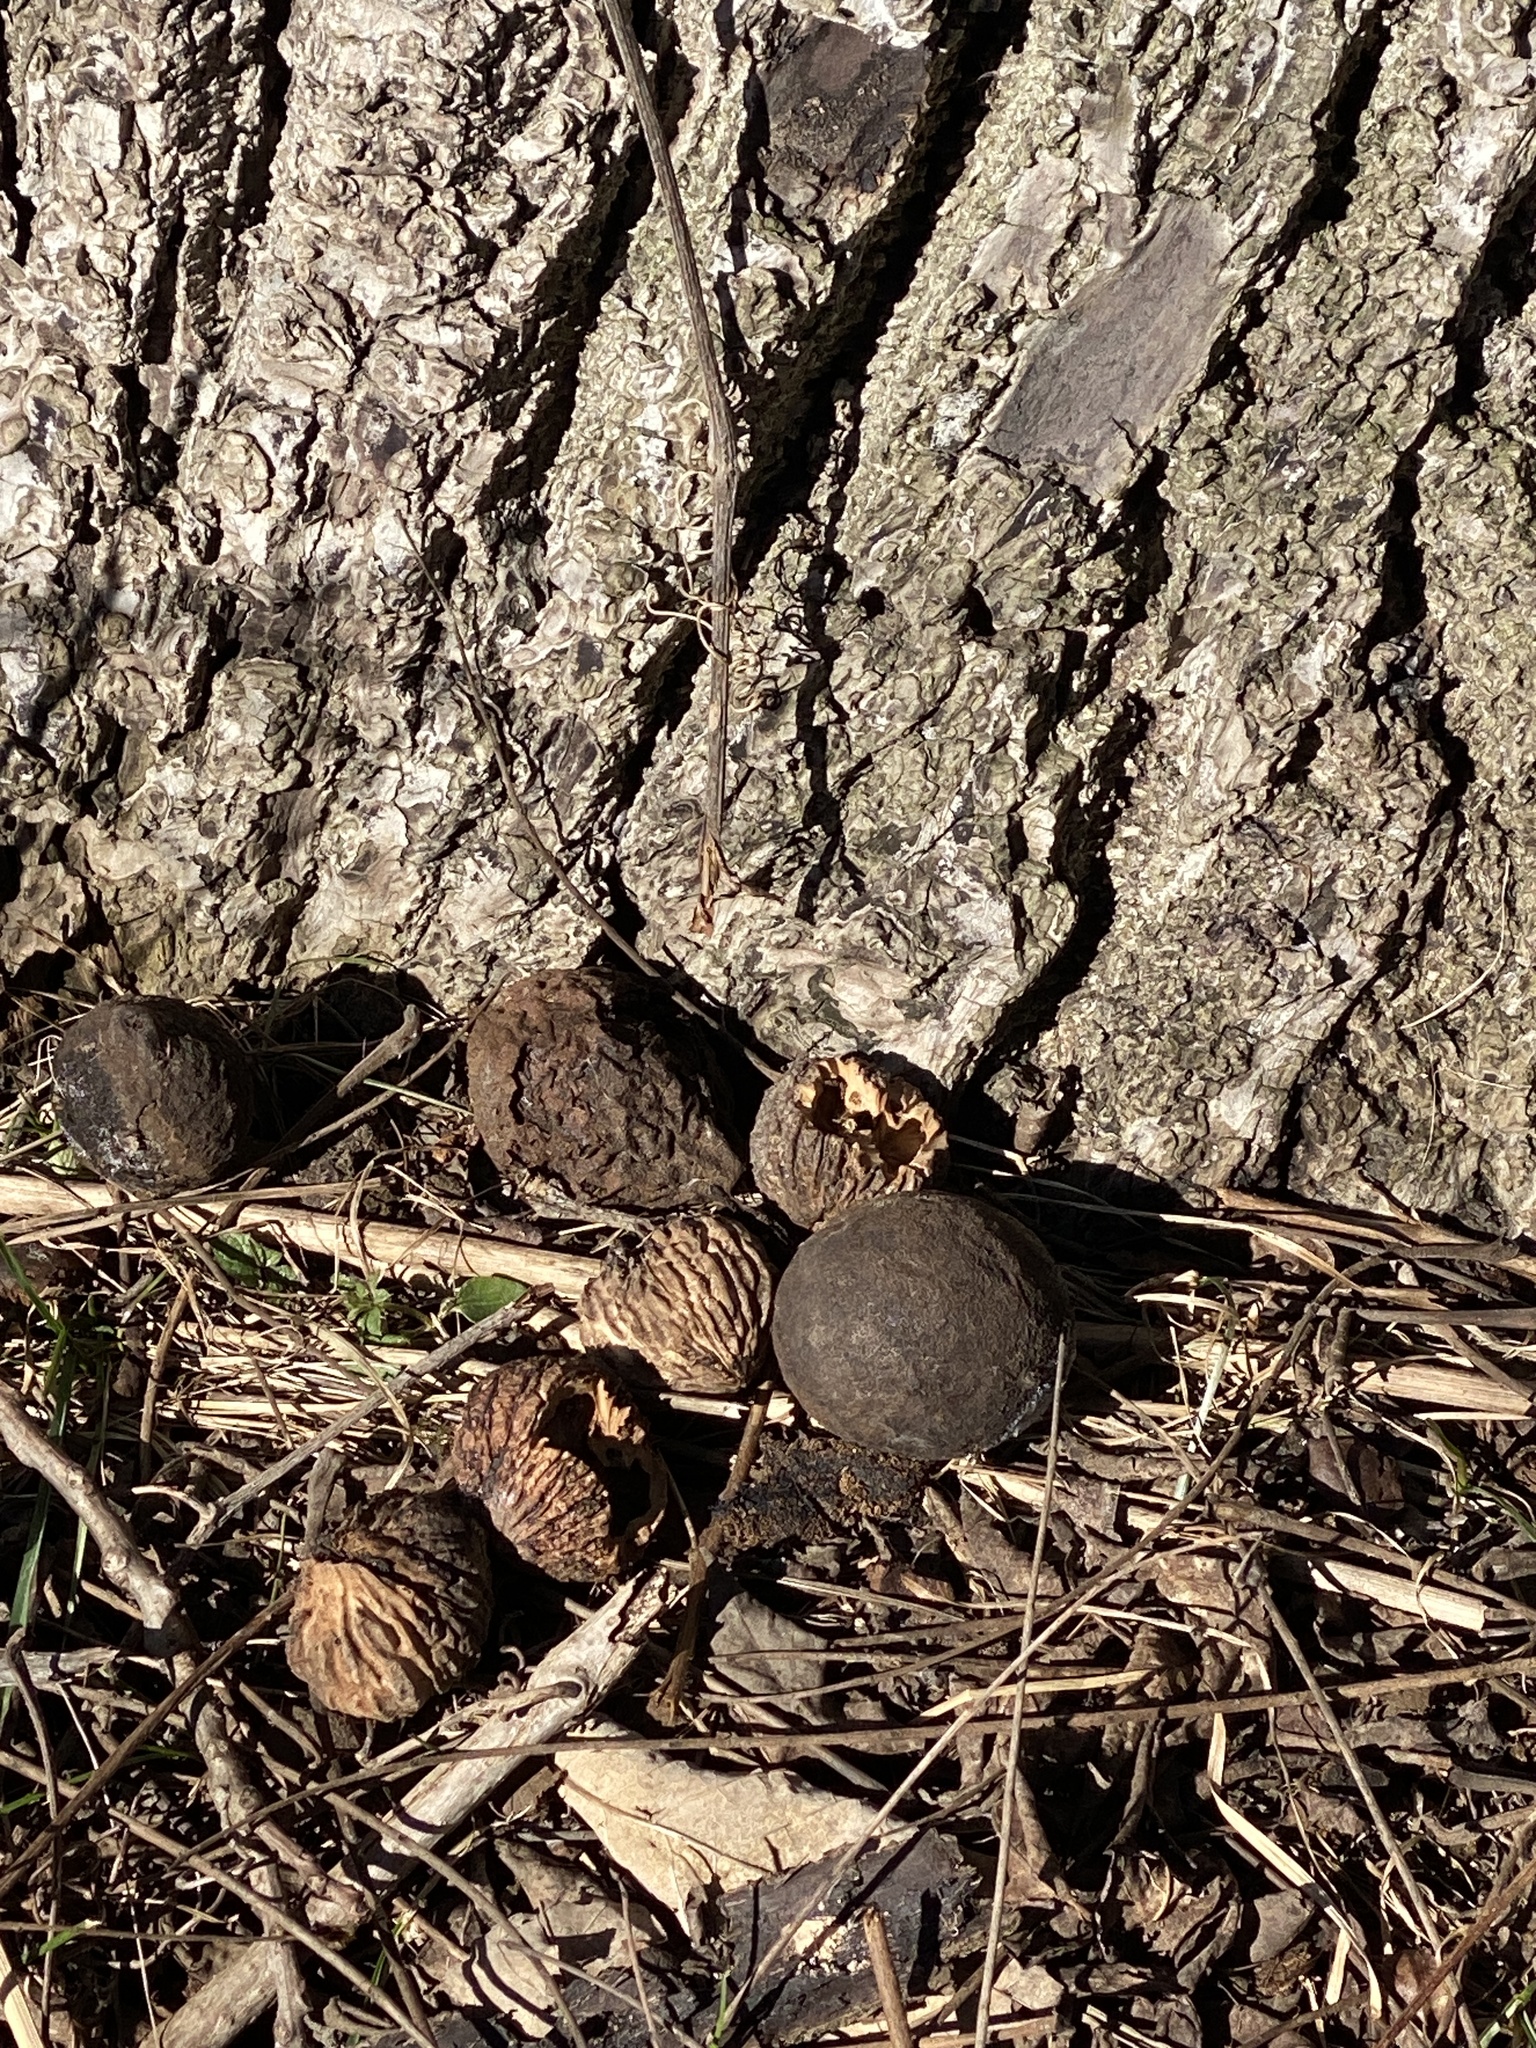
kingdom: Plantae
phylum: Tracheophyta
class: Magnoliopsida
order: Fagales
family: Juglandaceae
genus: Juglans
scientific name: Juglans nigra
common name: Black walnut
